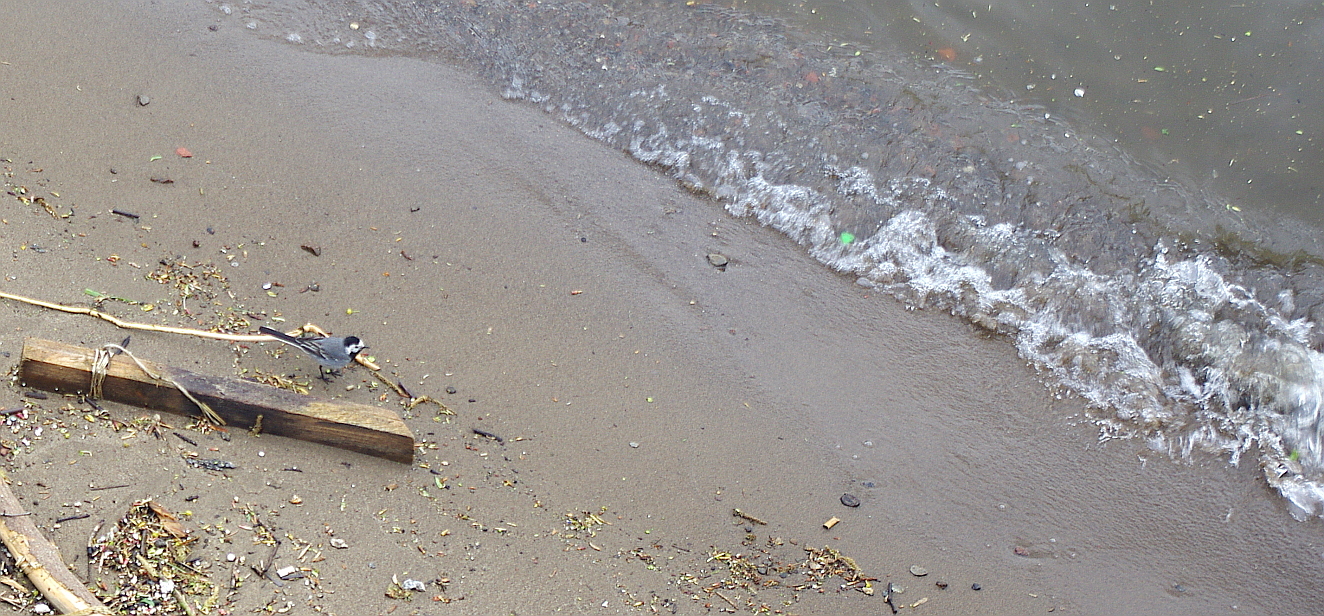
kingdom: Animalia
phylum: Chordata
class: Aves
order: Passeriformes
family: Motacillidae
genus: Motacilla
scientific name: Motacilla alba
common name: White wagtail
